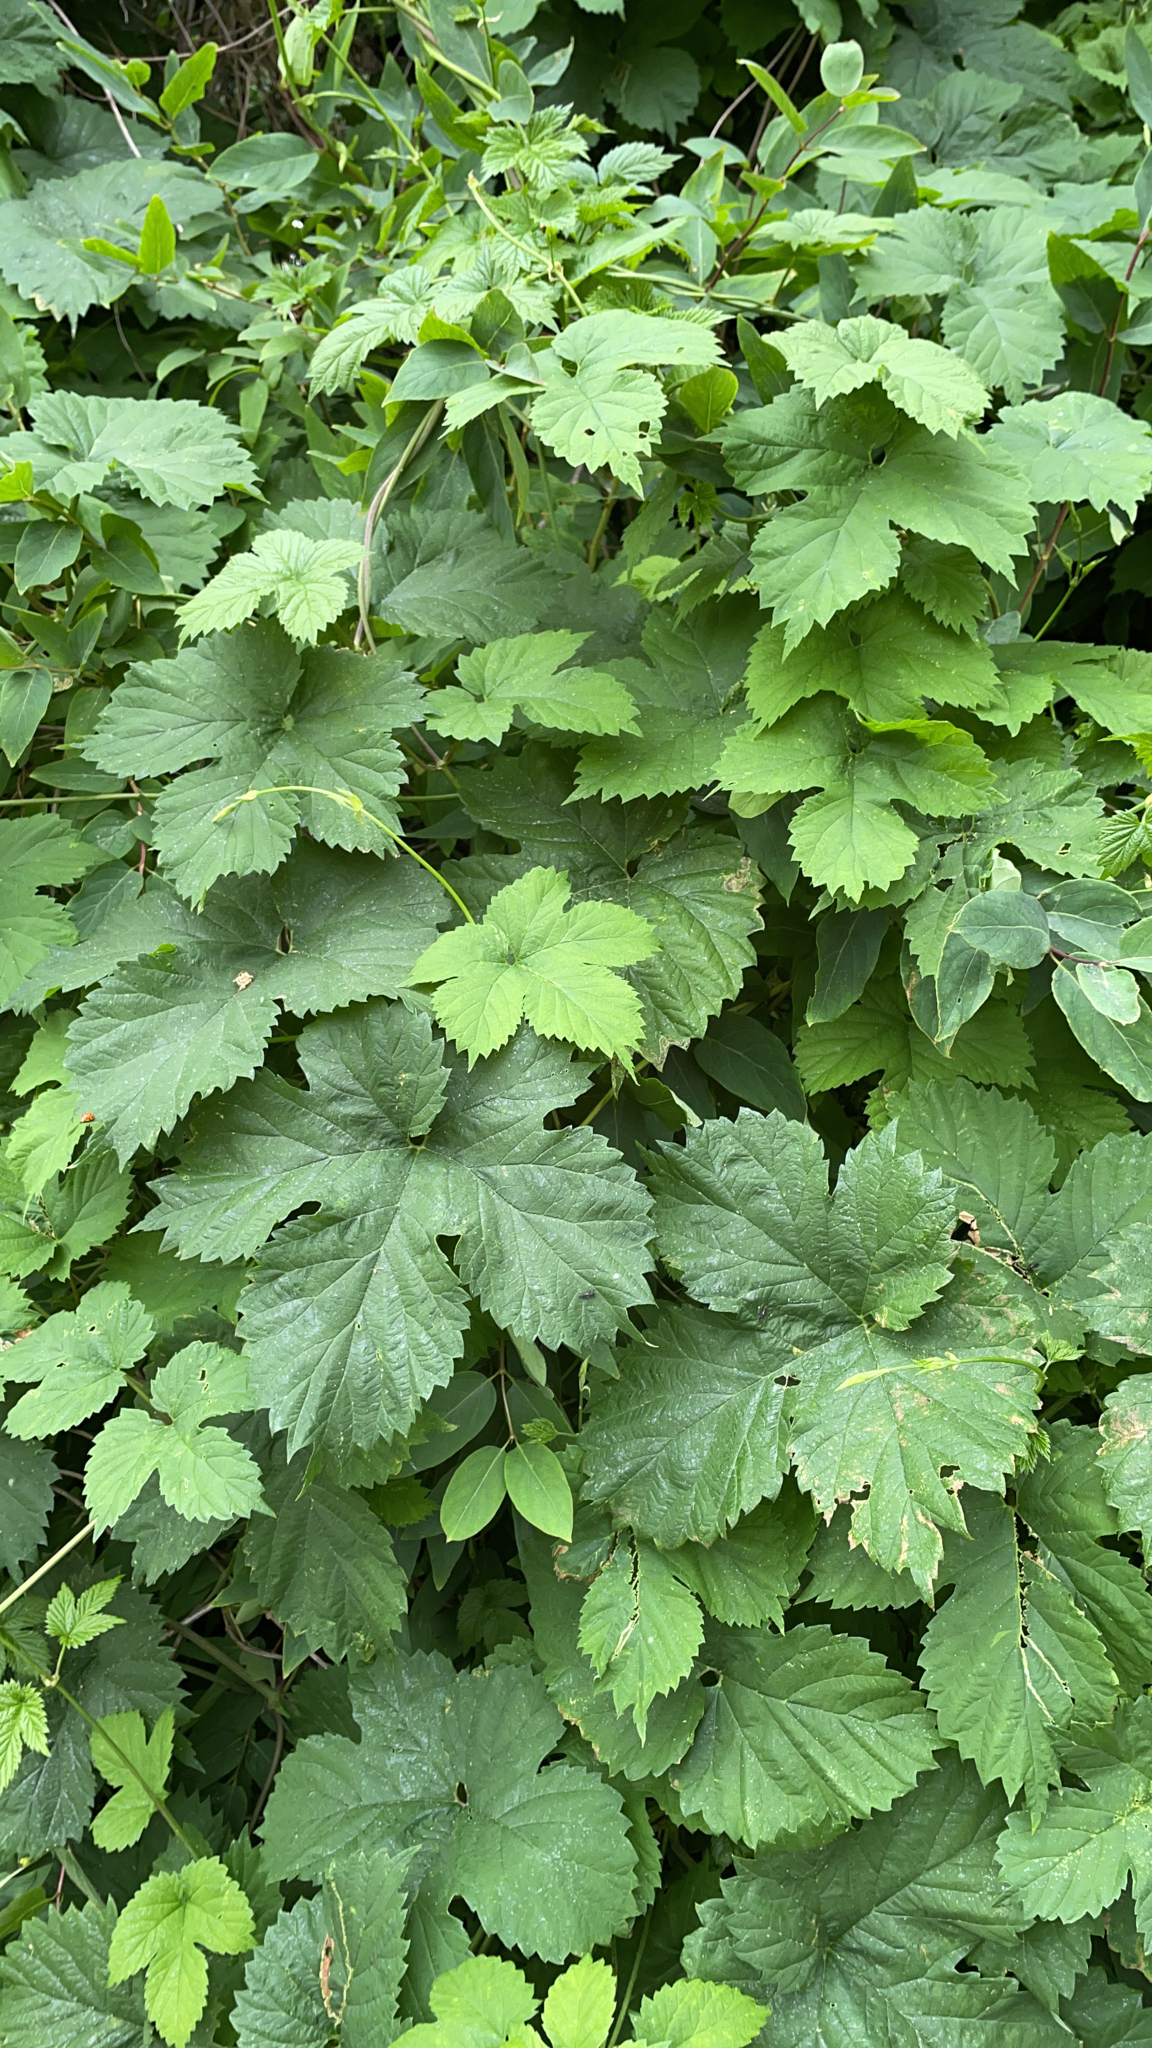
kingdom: Plantae
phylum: Tracheophyta
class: Magnoliopsida
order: Rosales
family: Cannabaceae
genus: Humulus
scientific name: Humulus lupulus
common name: Hop
